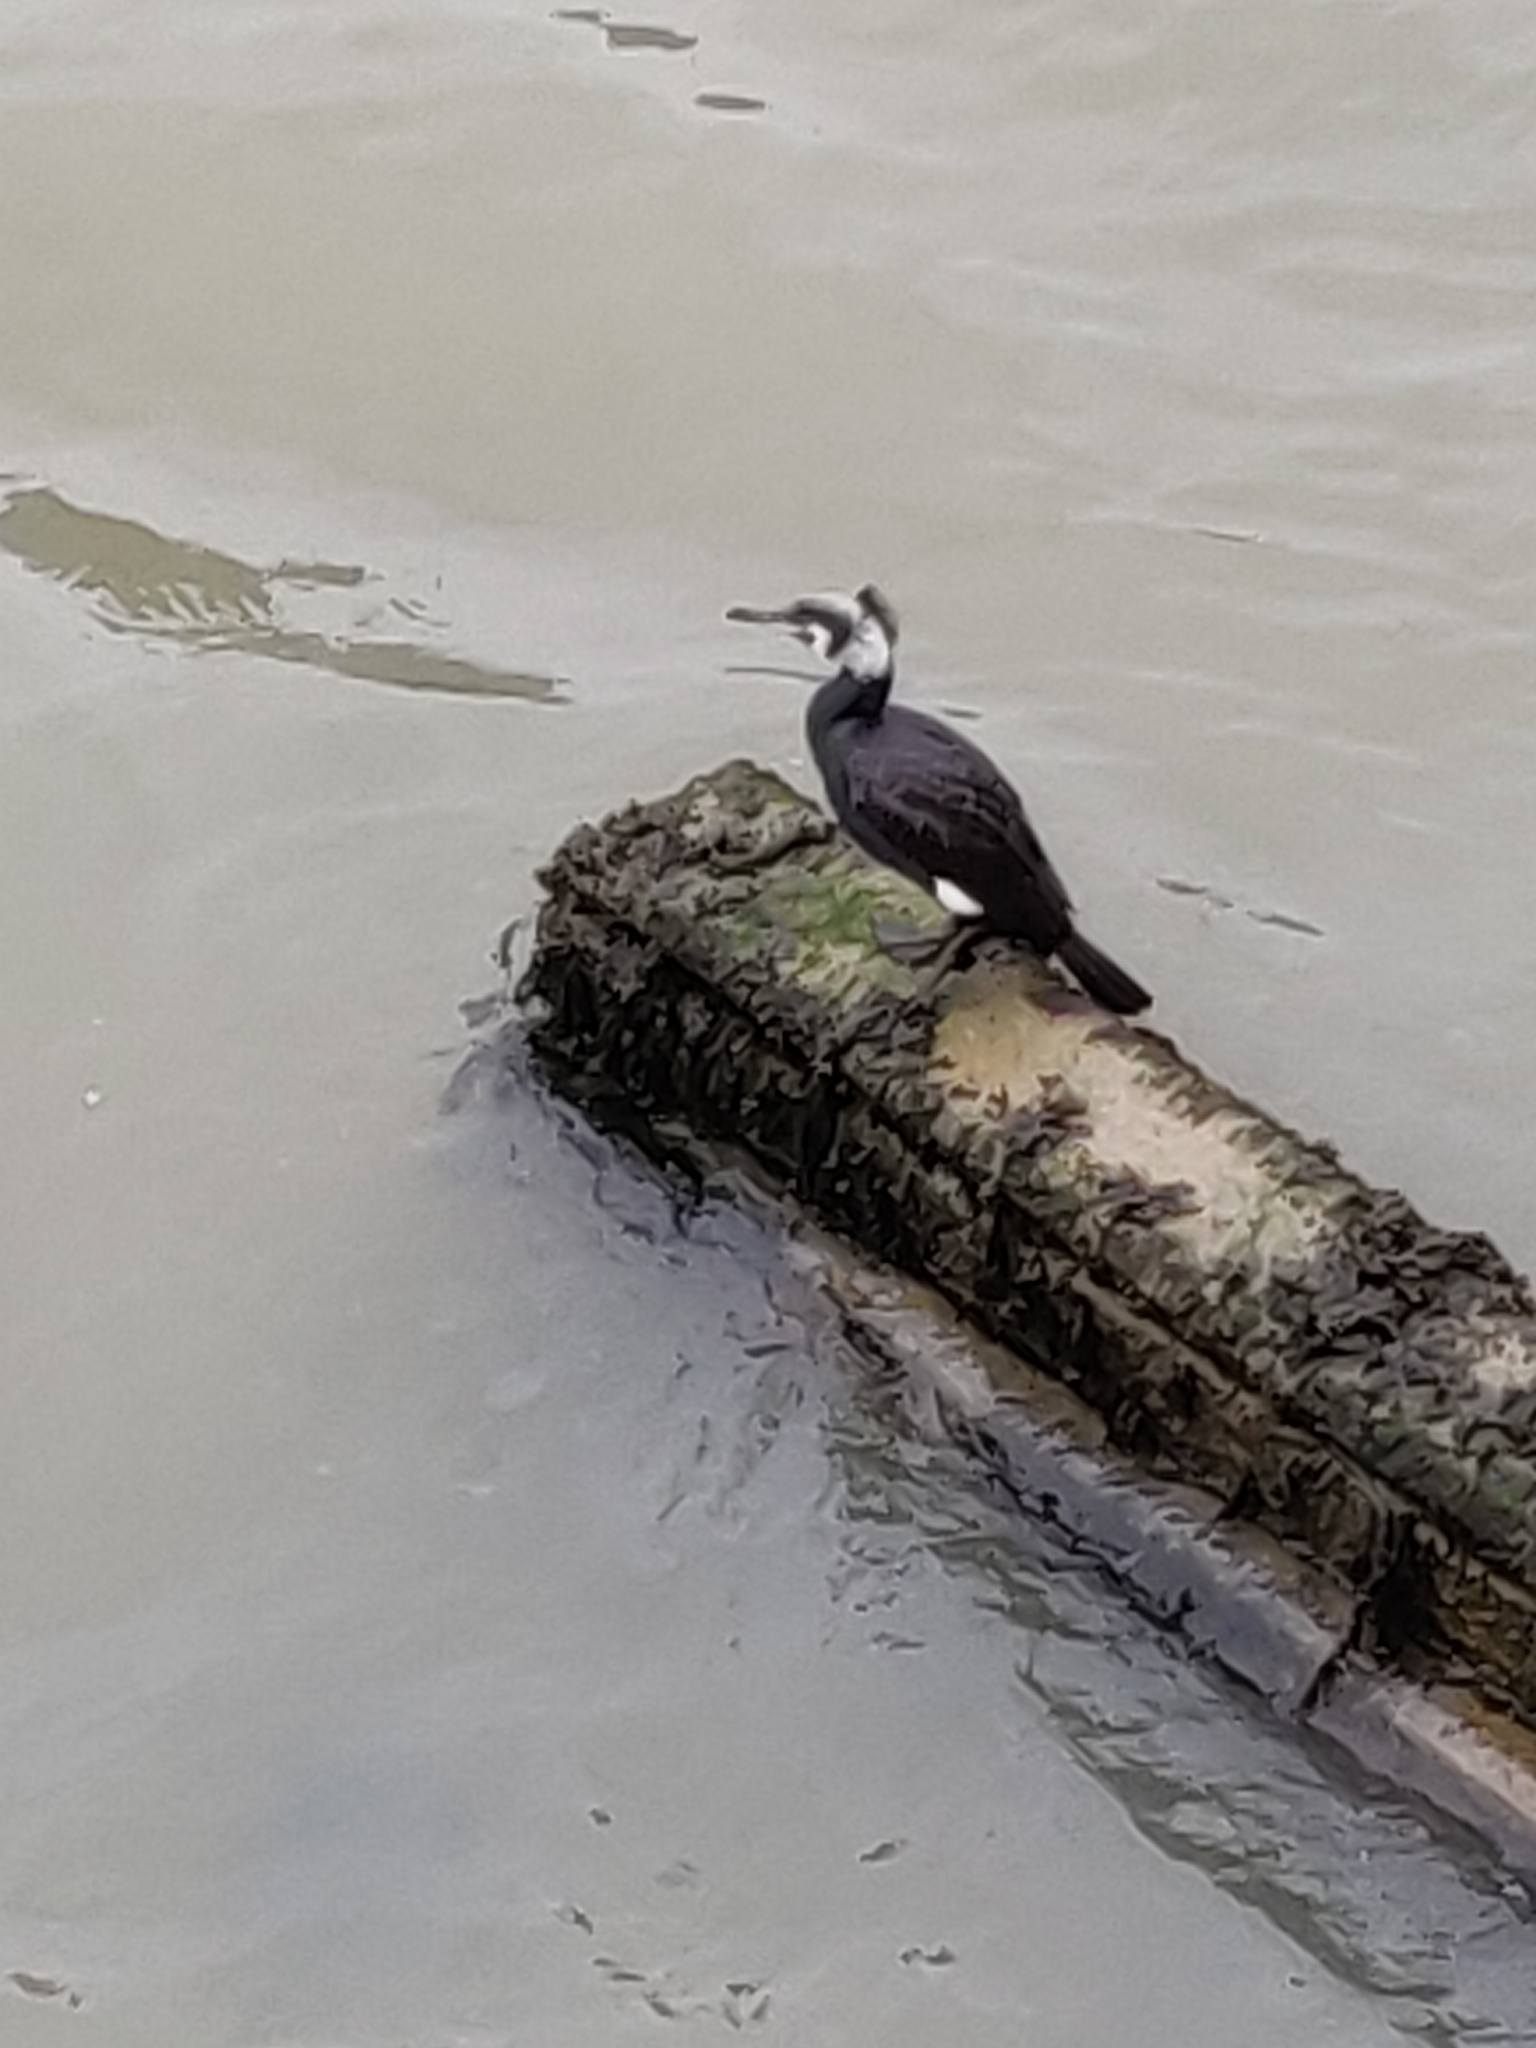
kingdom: Animalia
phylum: Chordata
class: Aves
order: Suliformes
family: Phalacrocoracidae
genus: Phalacrocorax
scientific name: Phalacrocorax carbo
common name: Great cormorant
